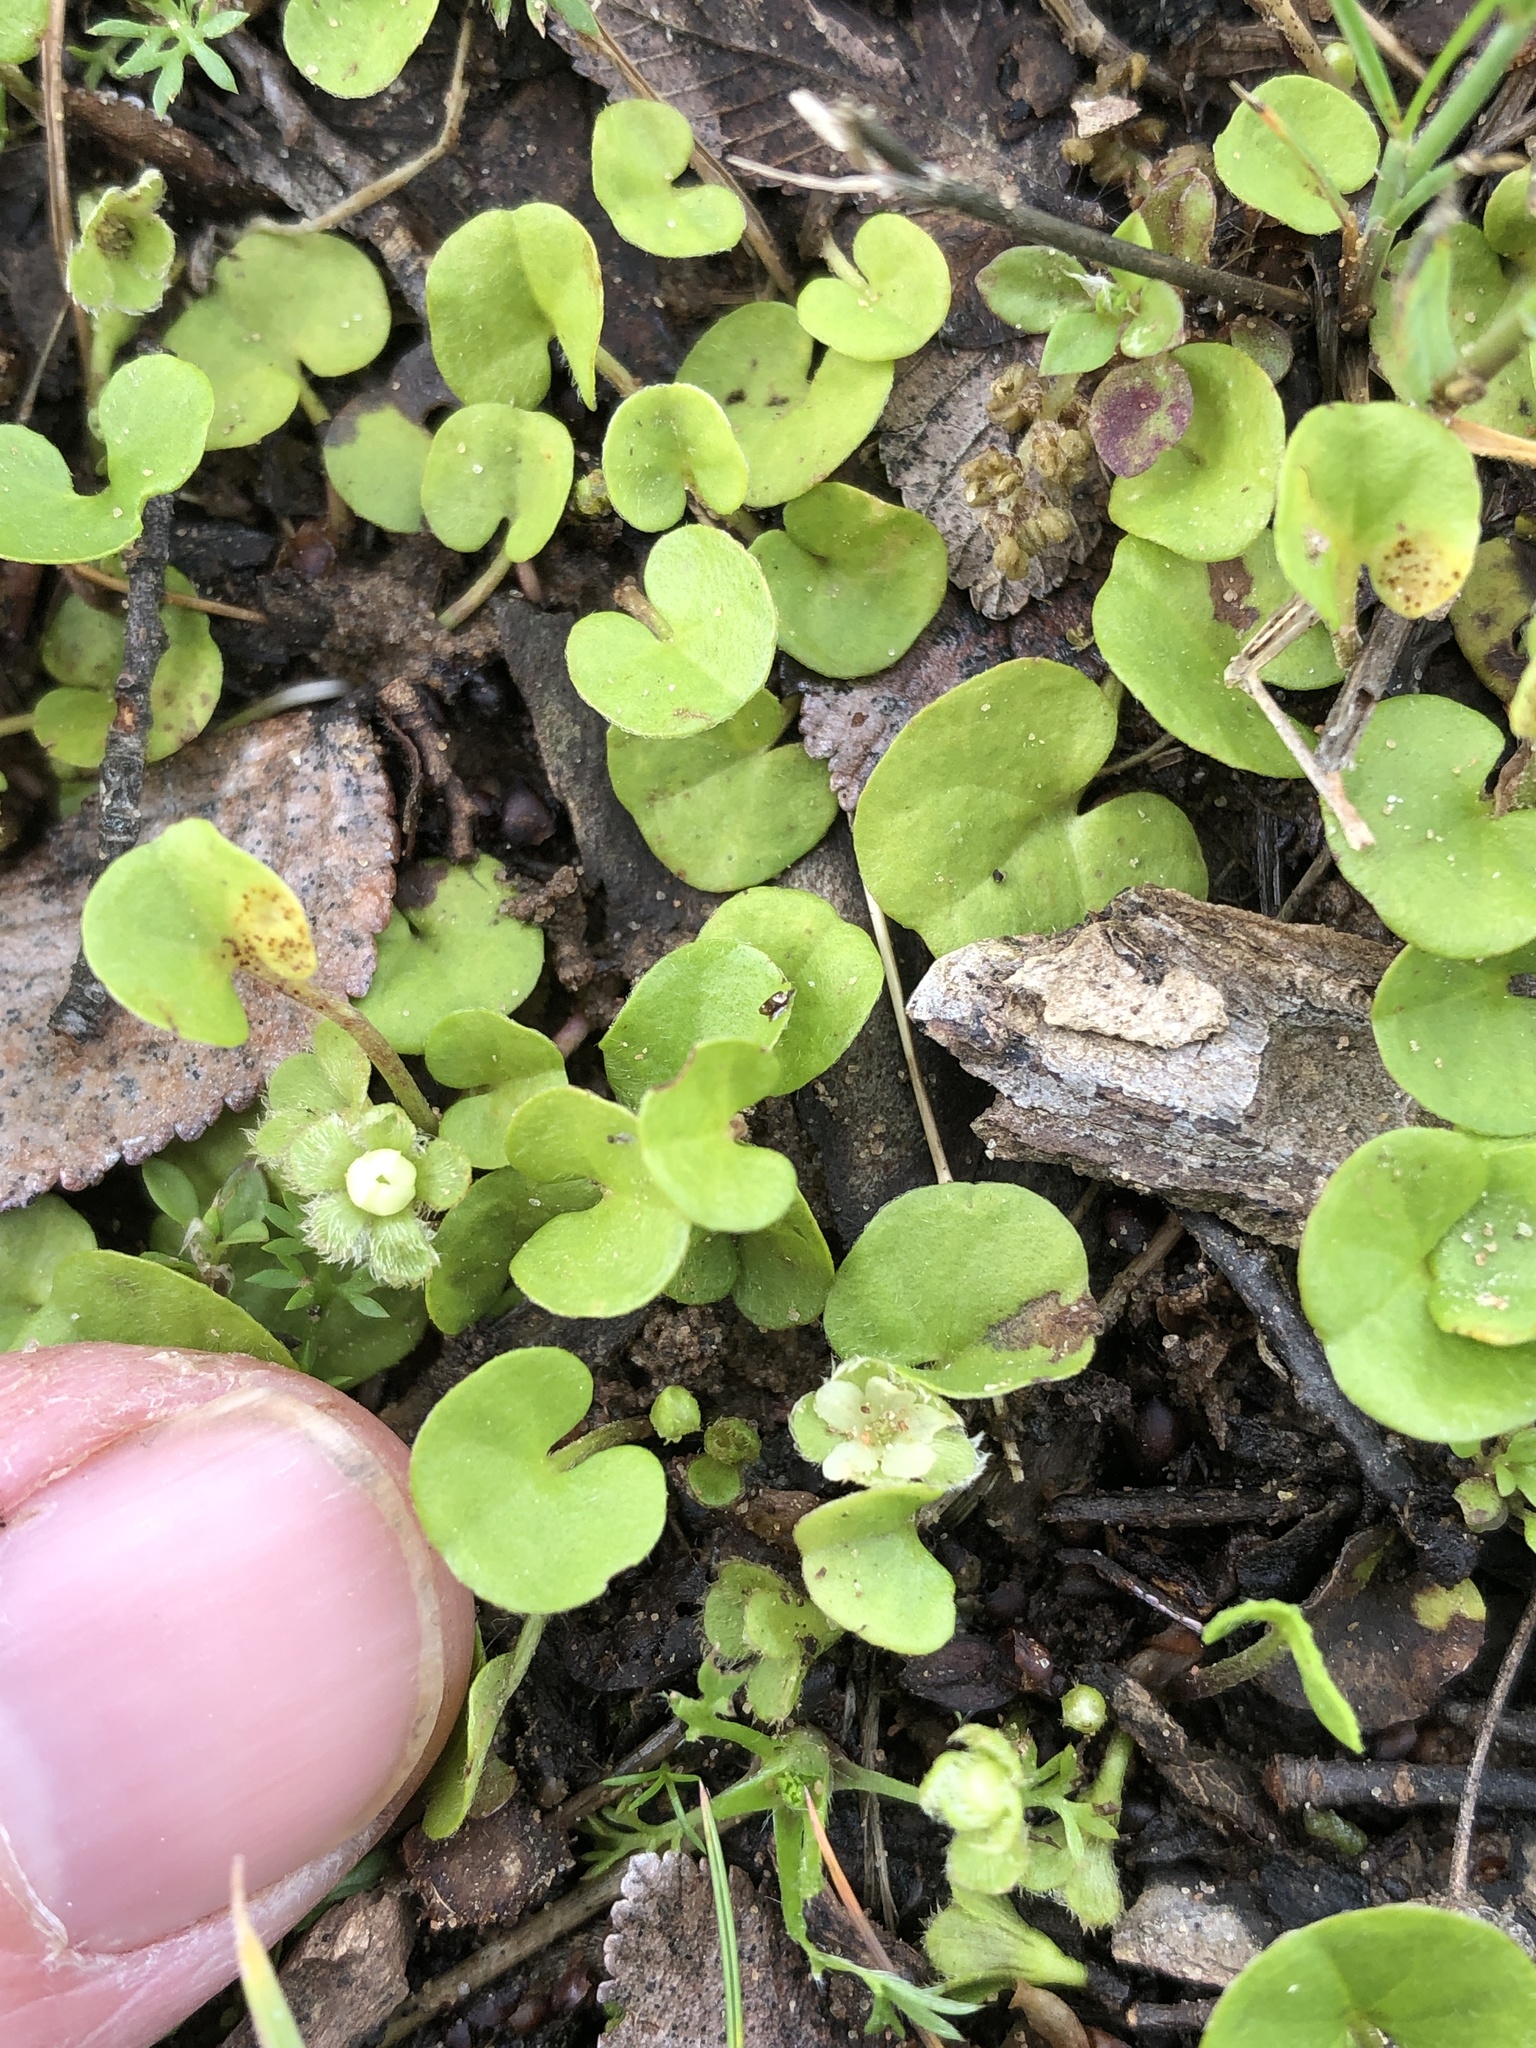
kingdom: Plantae
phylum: Tracheophyta
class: Magnoliopsida
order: Solanales
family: Convolvulaceae
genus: Dichondra
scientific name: Dichondra carolinensis
